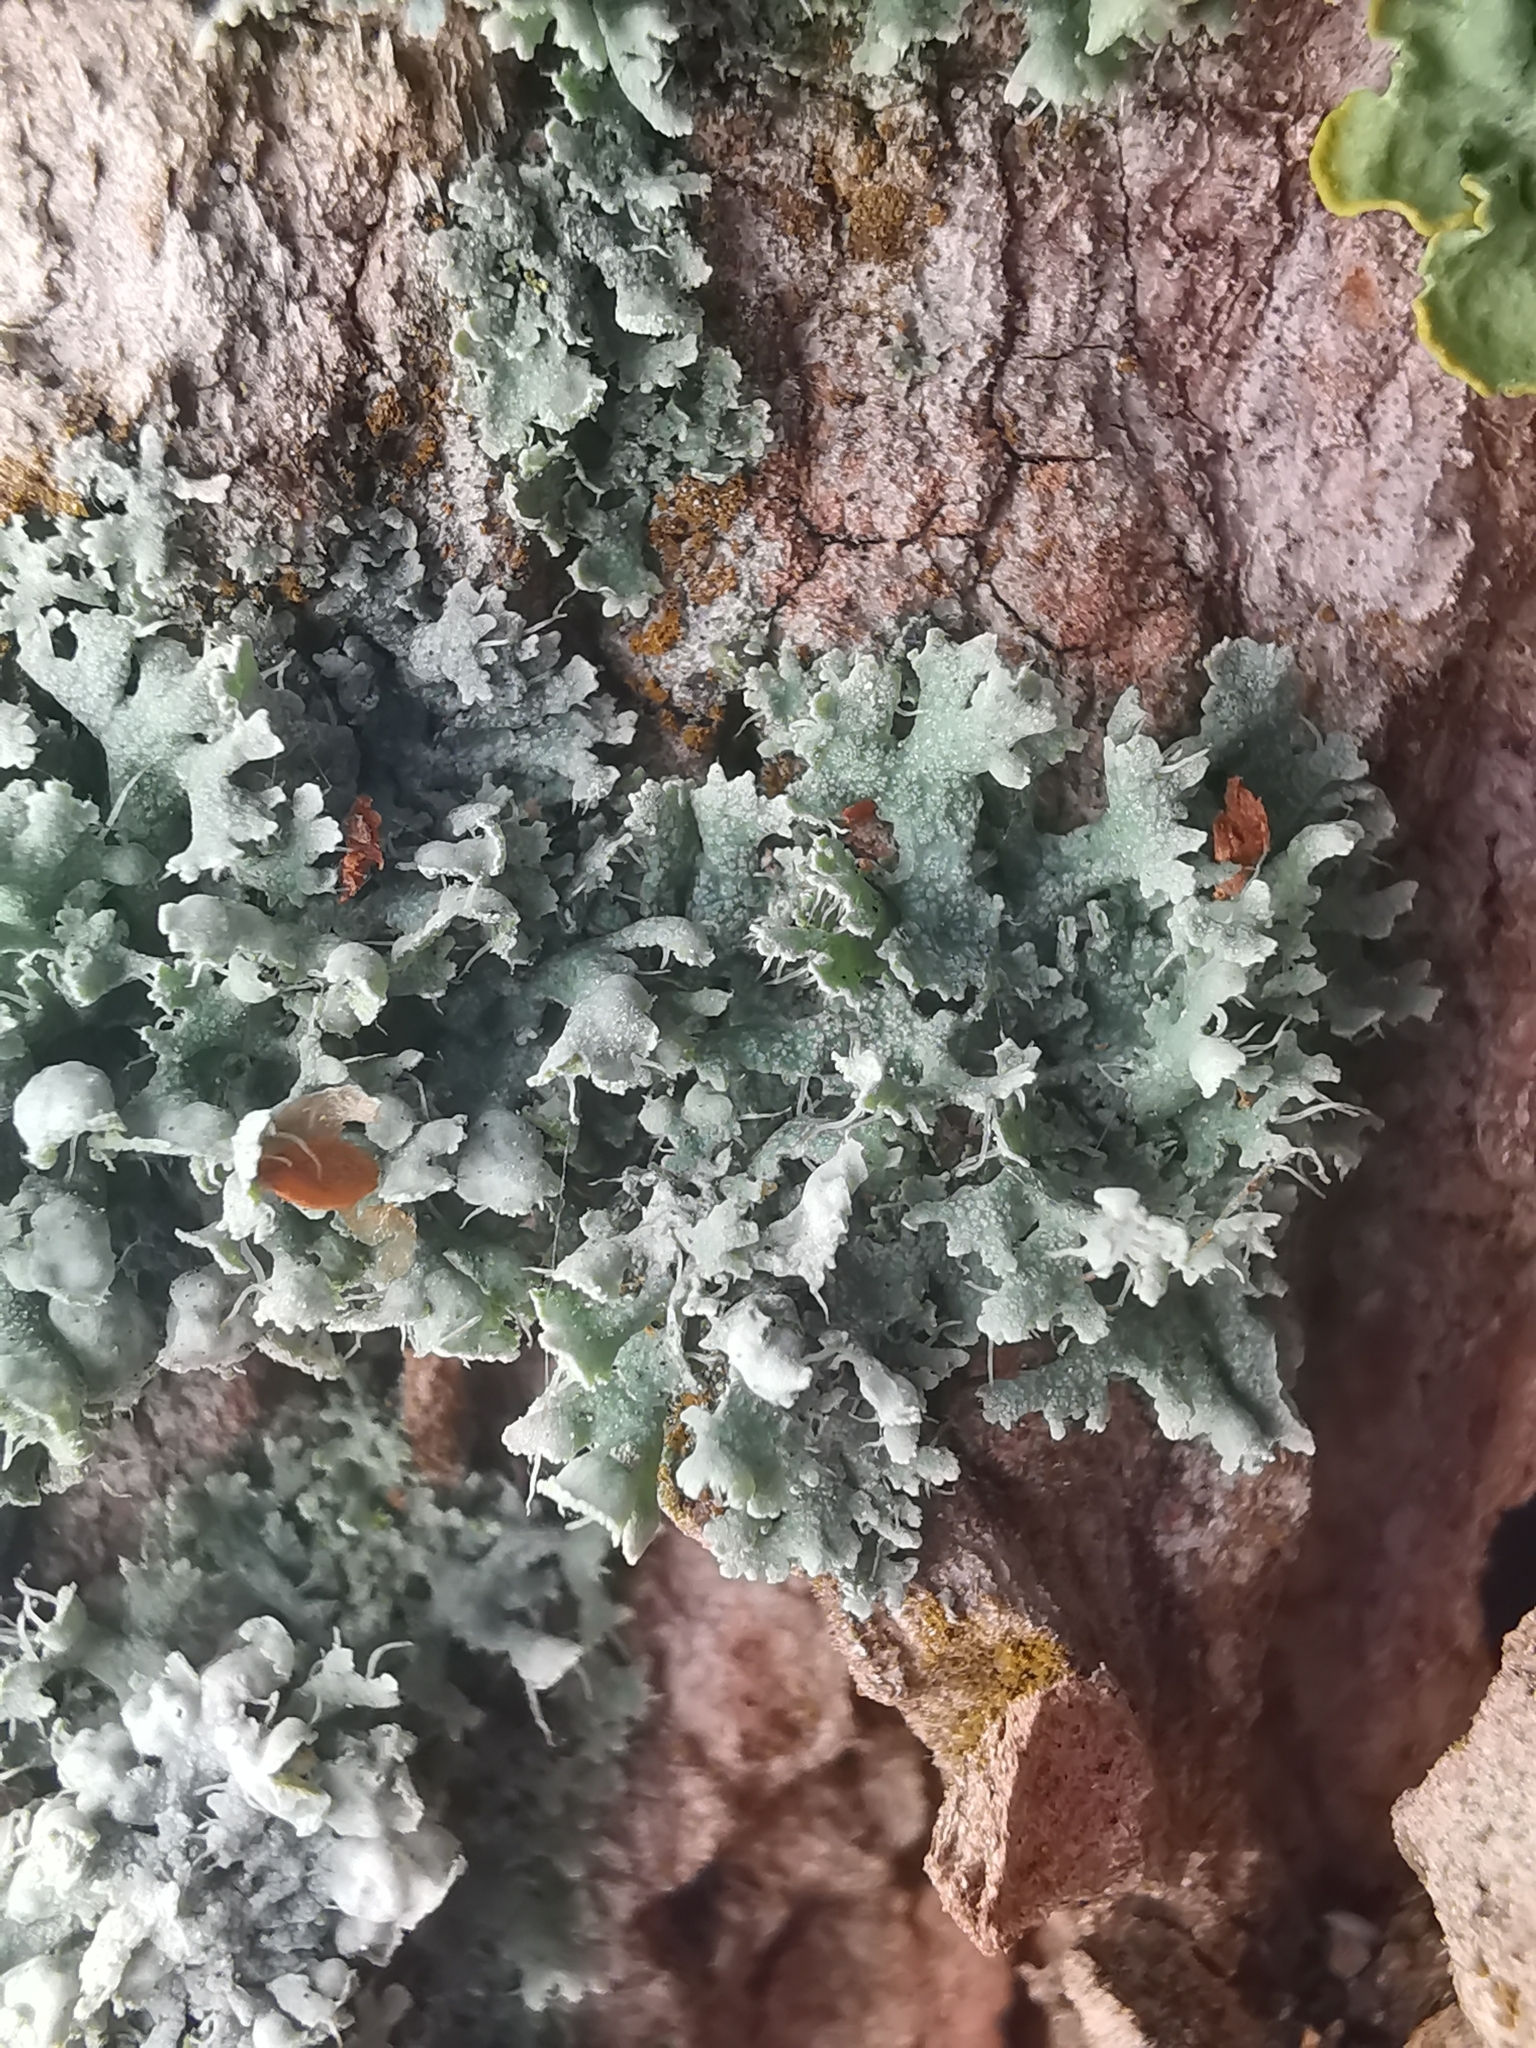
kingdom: Fungi
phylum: Ascomycota
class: Lecanoromycetes
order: Caliciales
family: Physciaceae
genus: Physcia
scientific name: Physcia adscendens
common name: Hooded rosette lichen
